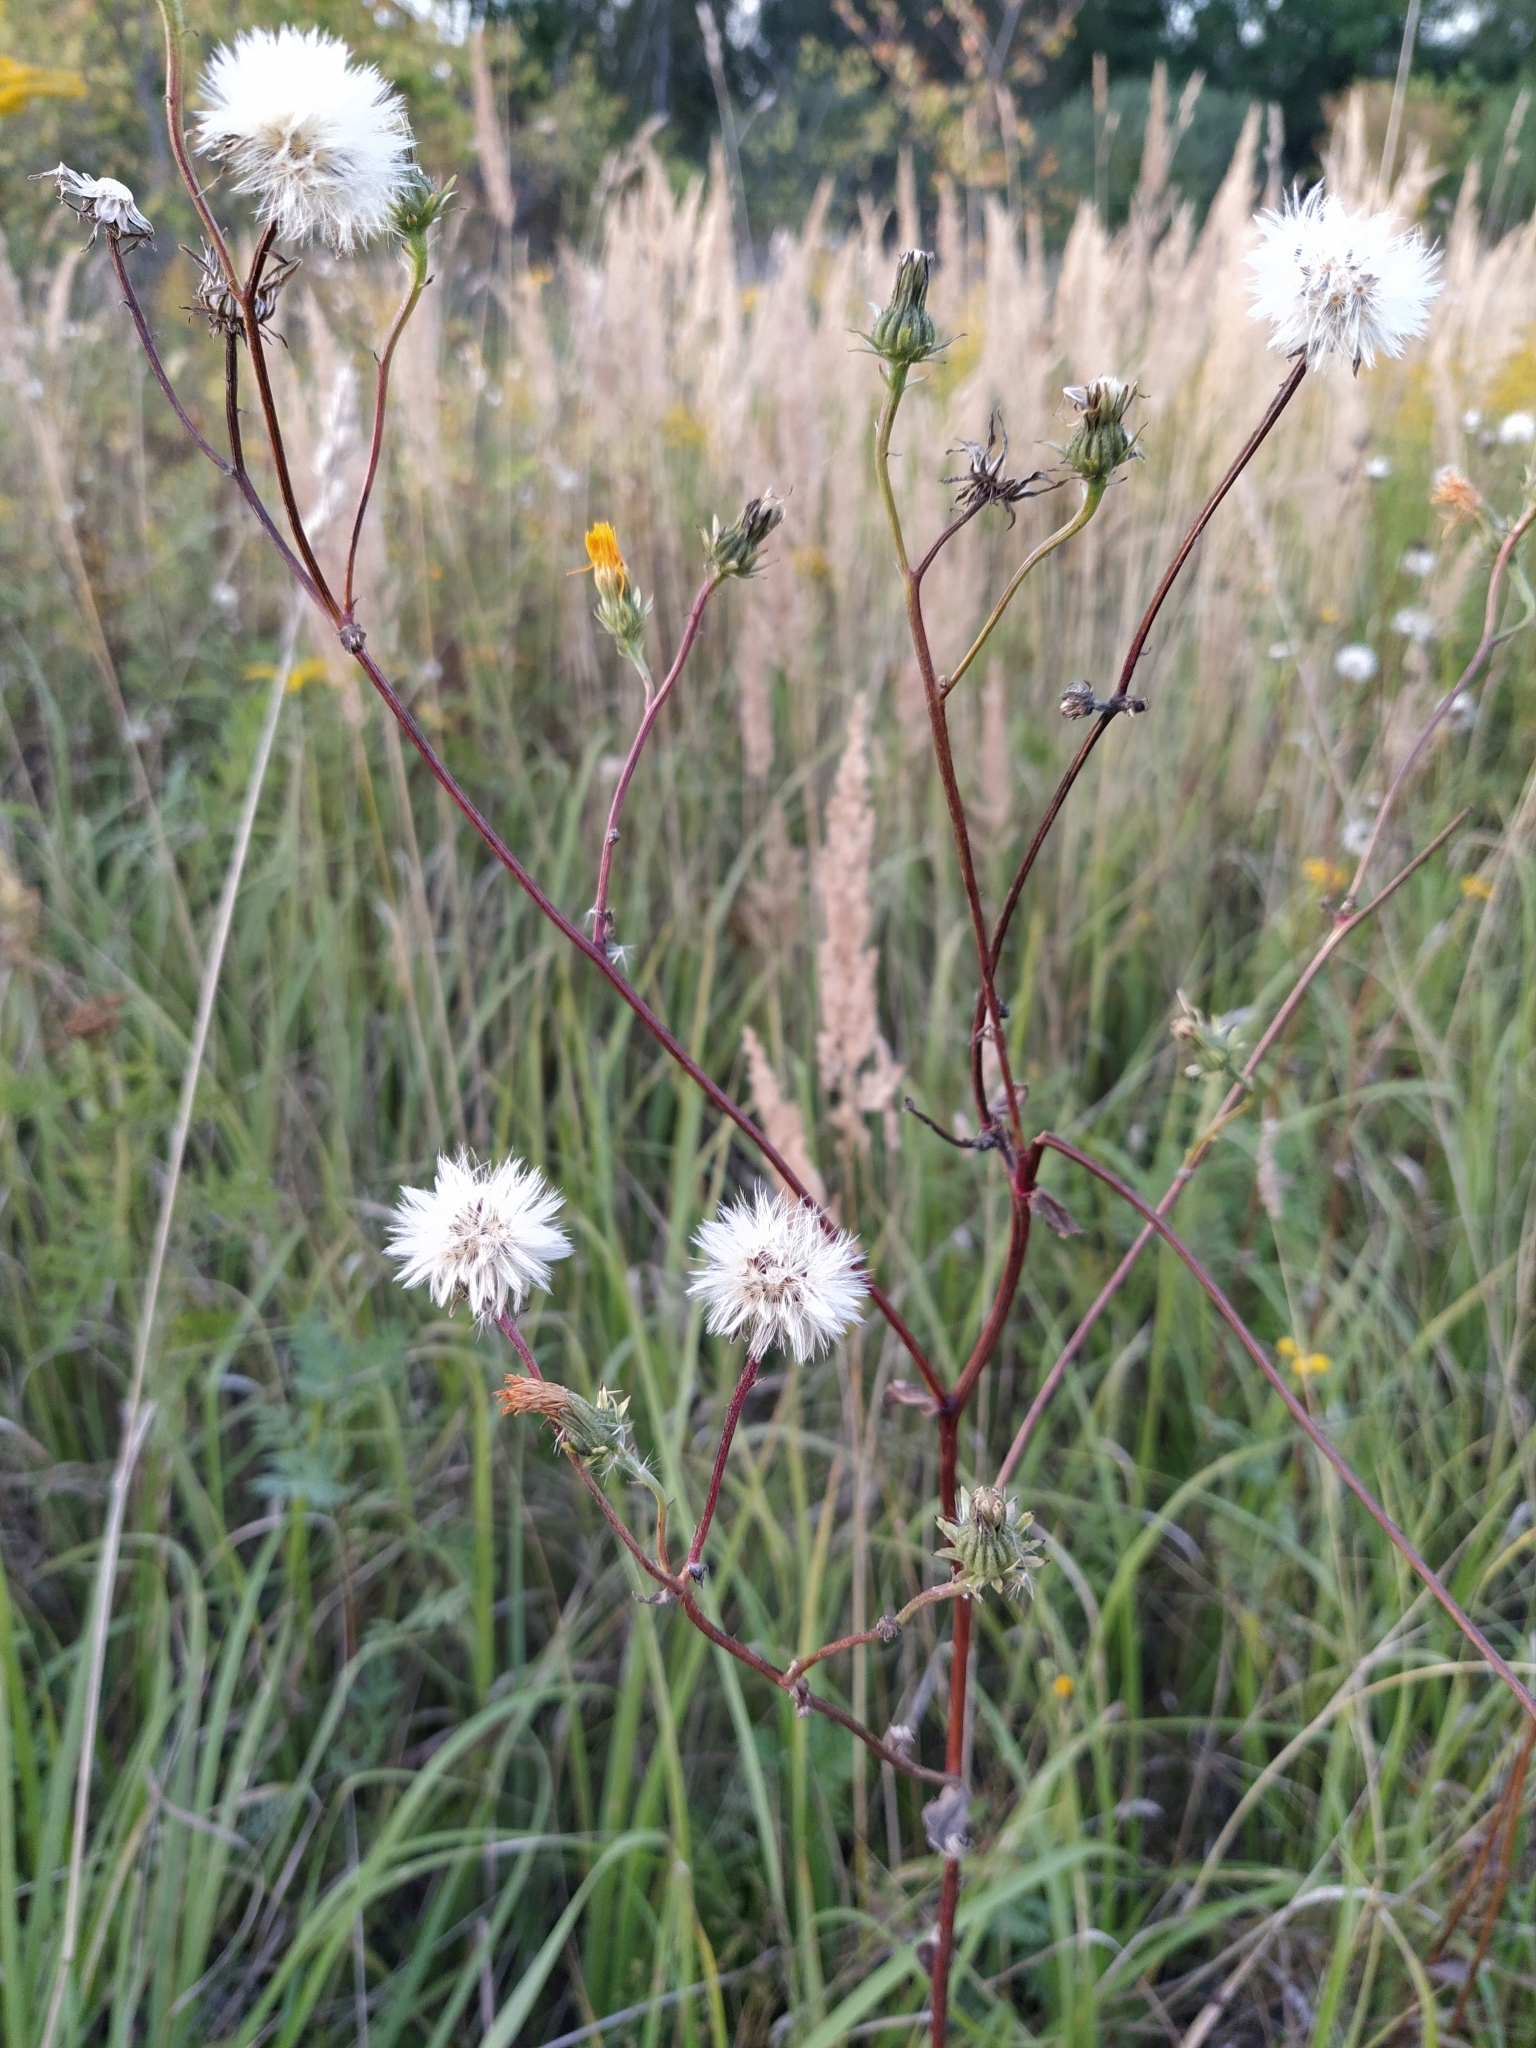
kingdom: Plantae
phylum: Tracheophyta
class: Magnoliopsida
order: Asterales
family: Asteraceae
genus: Picris
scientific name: Picris hieracioides
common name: Hawkweed oxtongue
